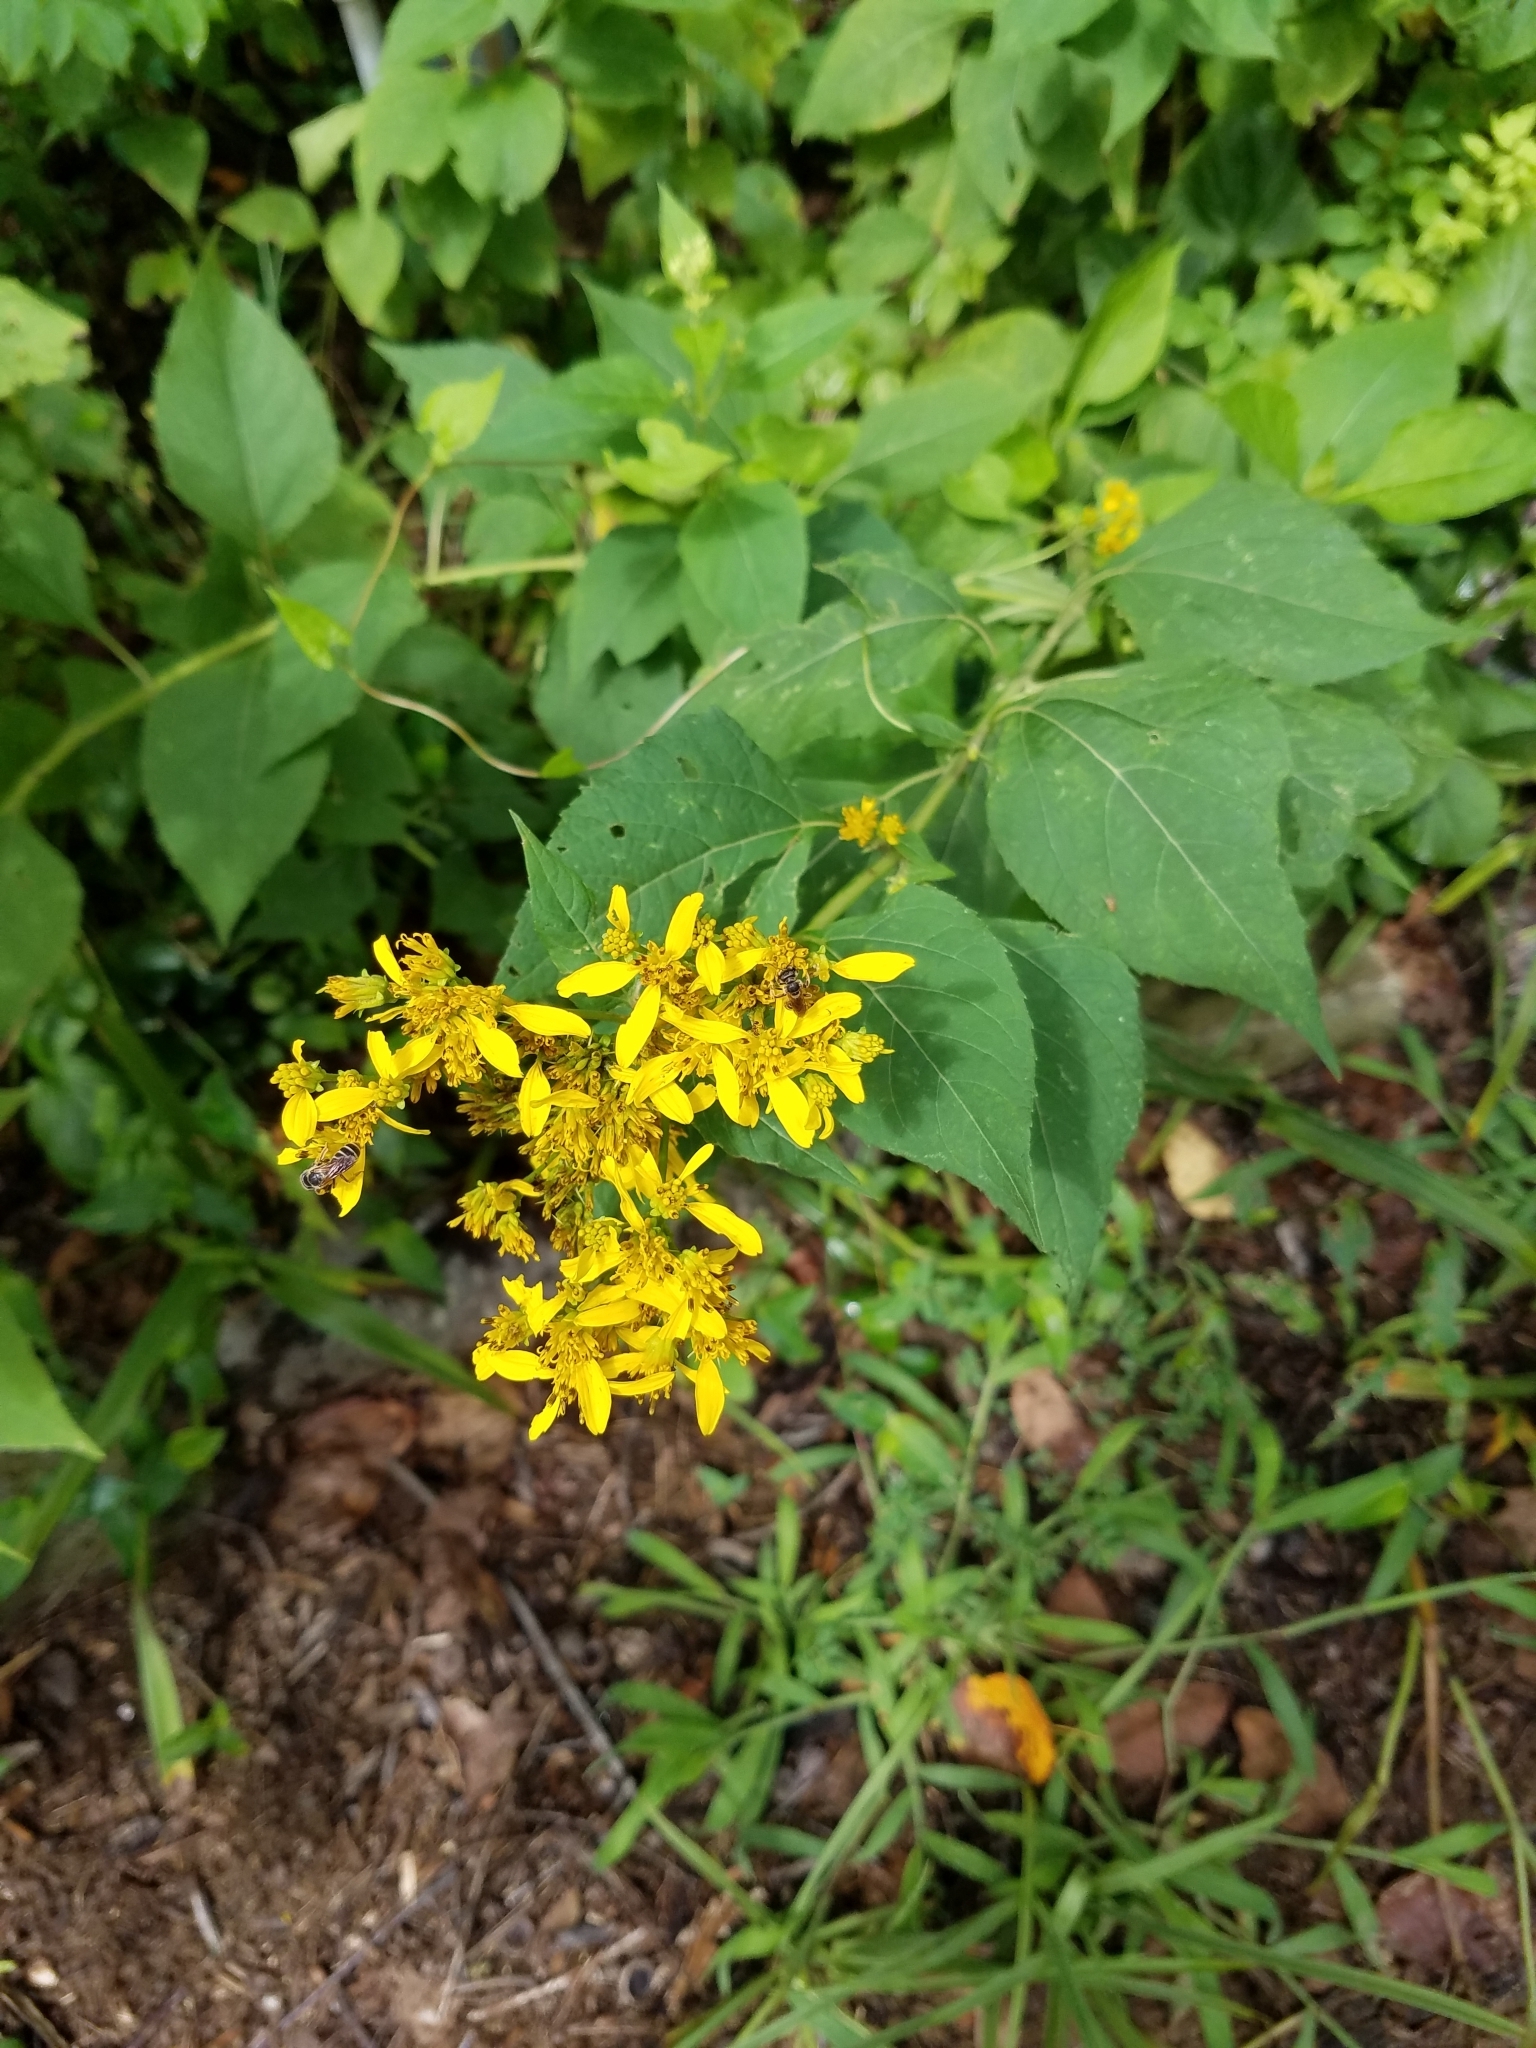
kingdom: Plantae
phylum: Tracheophyta
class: Magnoliopsida
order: Asterales
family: Asteraceae
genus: Verbesina
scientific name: Verbesina occidentalis
